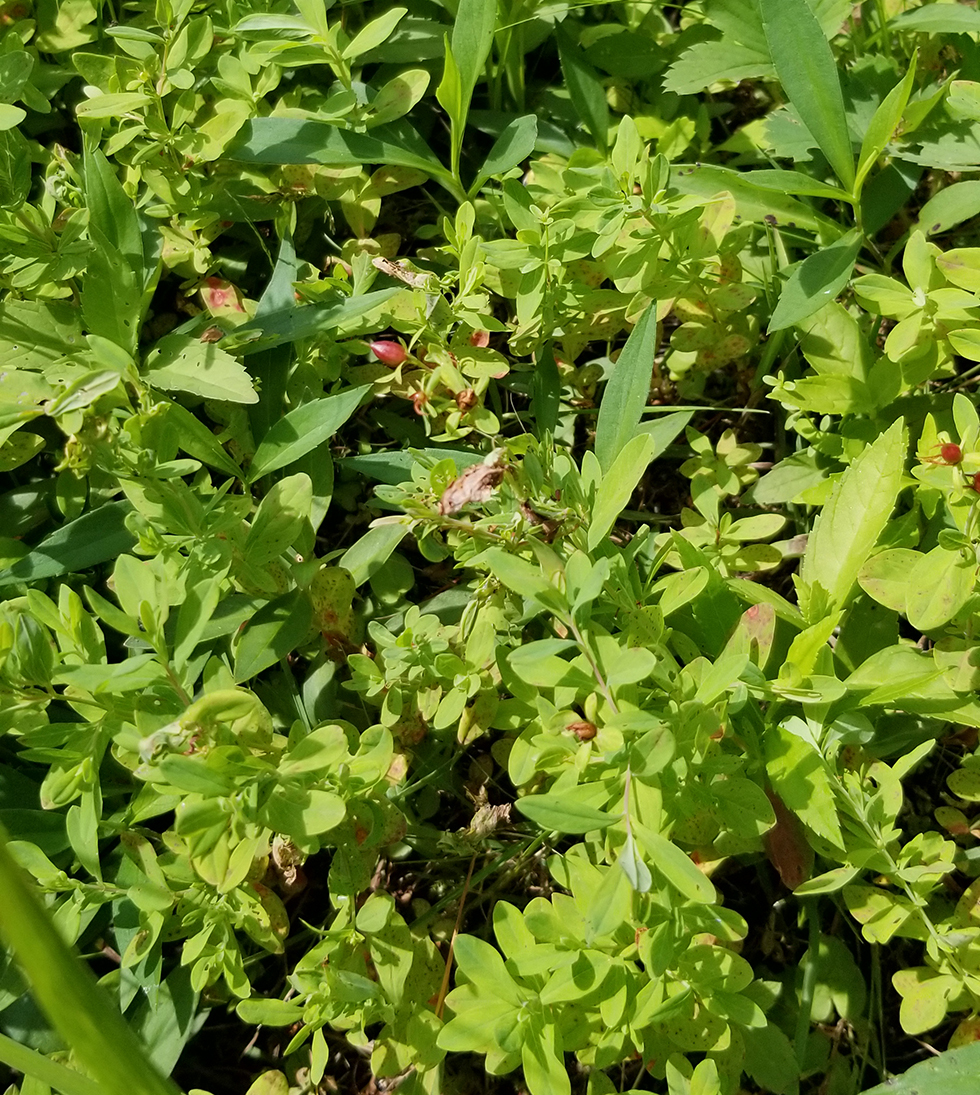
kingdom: Plantae
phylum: Tracheophyta
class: Magnoliopsida
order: Malpighiales
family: Hypericaceae
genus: Hypericum
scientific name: Hypericum ellipticum
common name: Elliptic st. john's-wort
